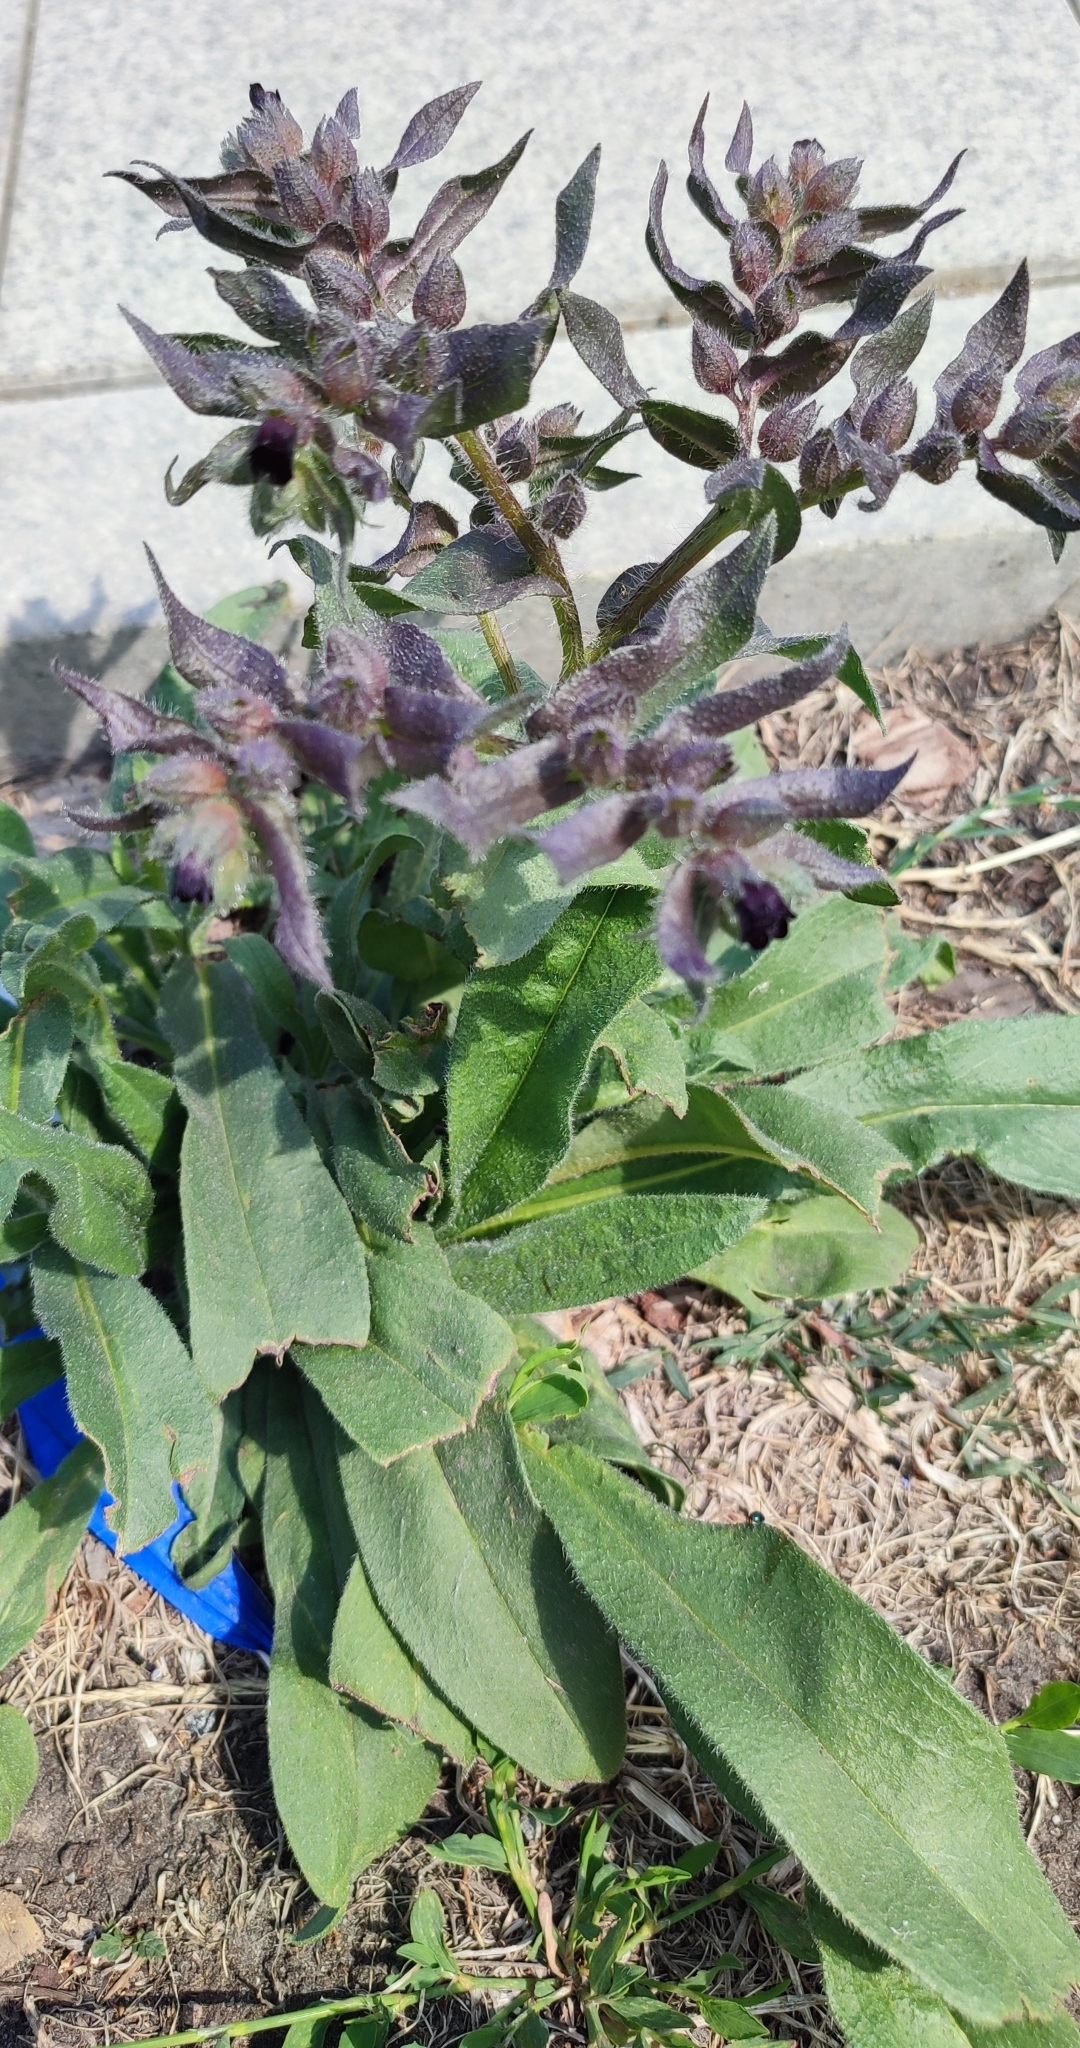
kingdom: Plantae
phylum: Tracheophyta
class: Magnoliopsida
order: Boraginales
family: Boraginaceae
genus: Nonea
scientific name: Nonea pulla
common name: Brown nonea
